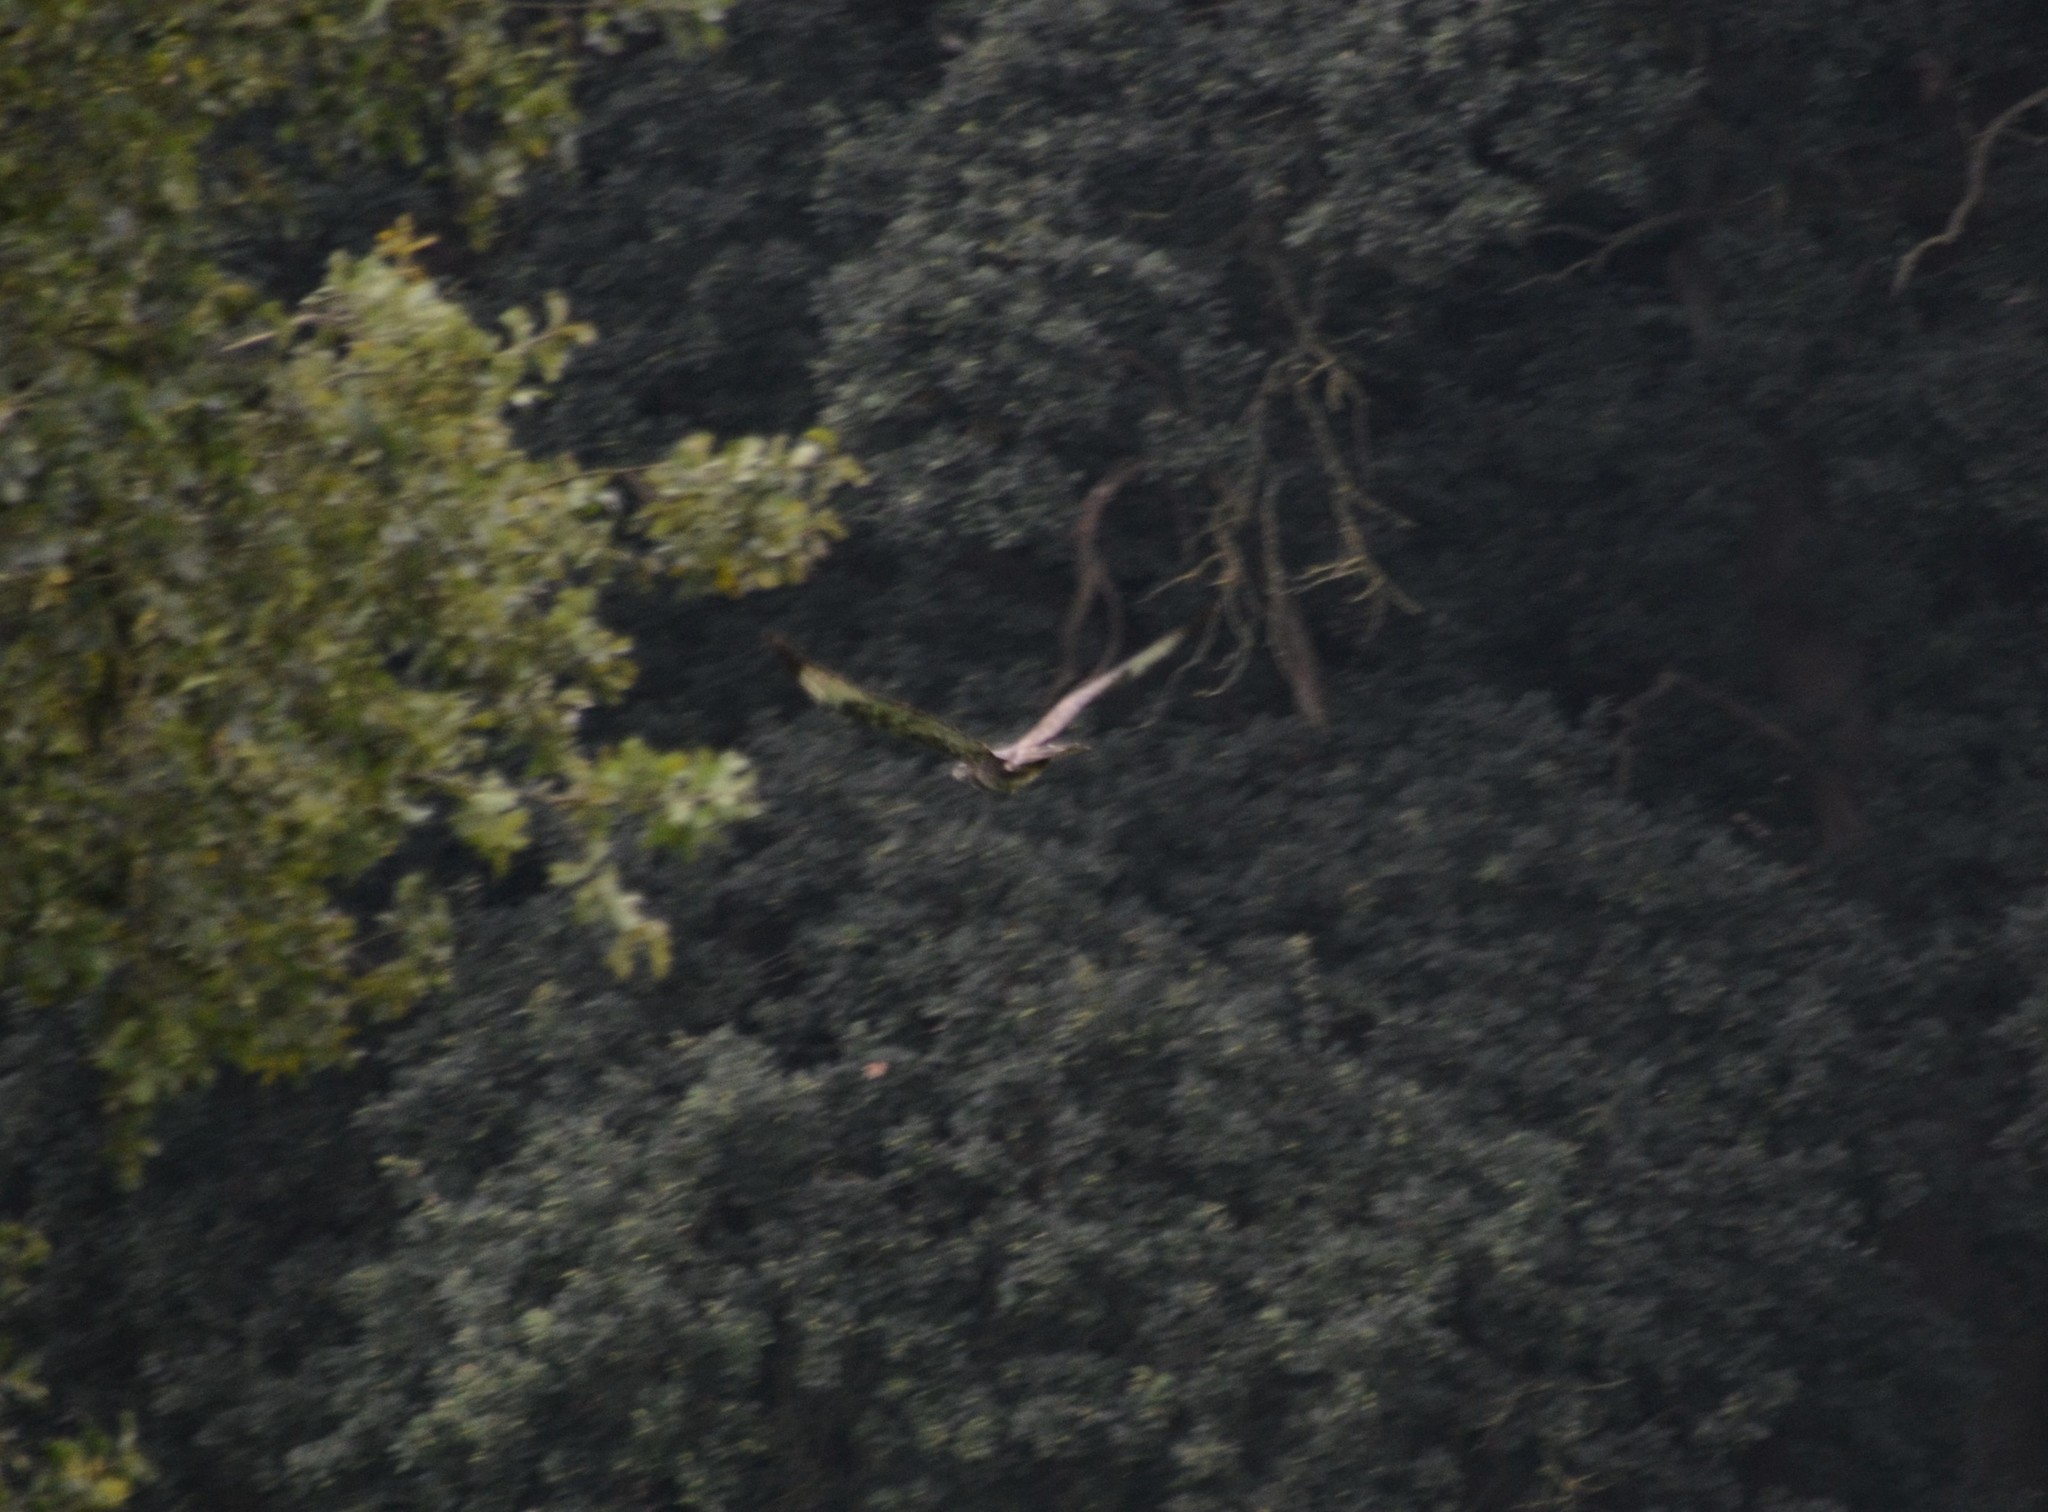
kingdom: Animalia
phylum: Chordata
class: Aves
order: Accipitriformes
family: Accipitridae
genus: Buteo
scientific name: Buteo buteo
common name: Common buzzard
